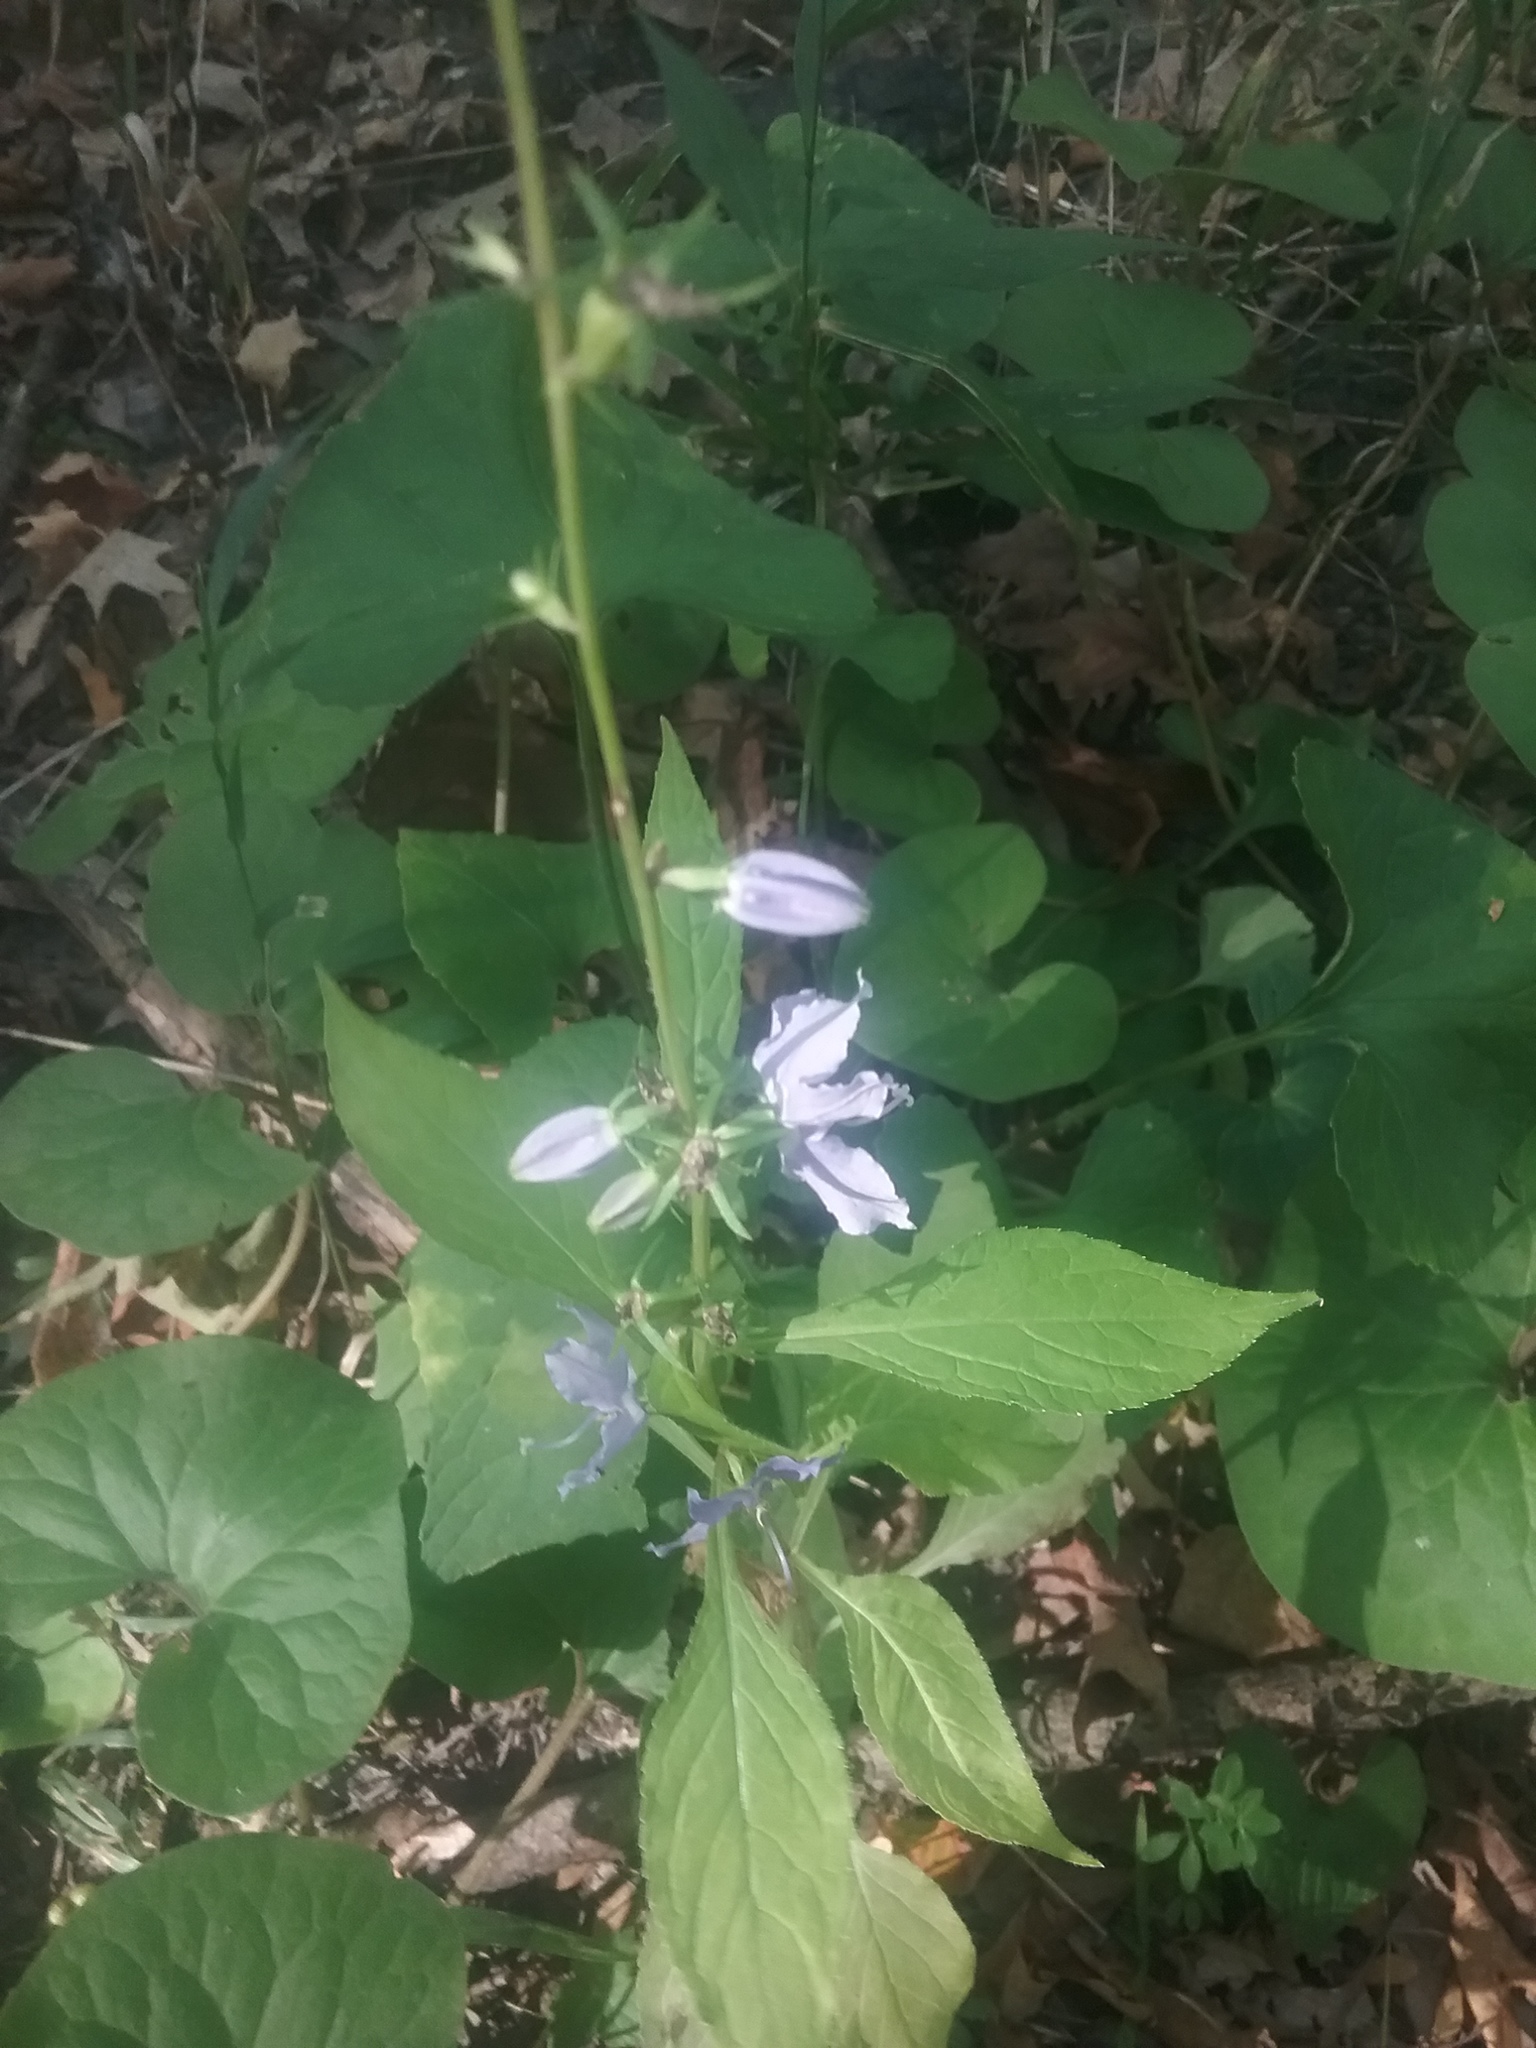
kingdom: Plantae
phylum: Tracheophyta
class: Magnoliopsida
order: Asterales
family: Campanulaceae
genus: Campanulastrum
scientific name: Campanulastrum americanum
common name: American bellflower
